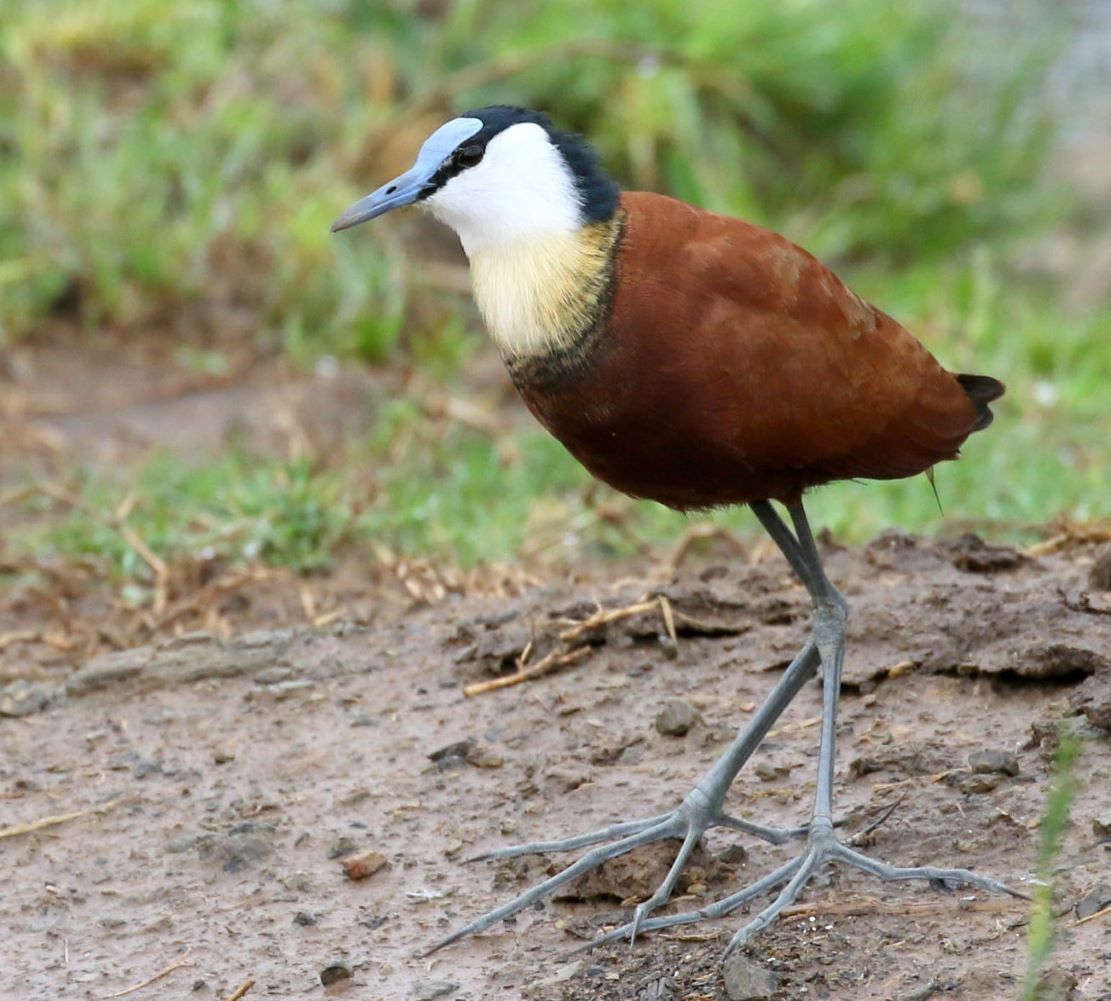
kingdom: Animalia
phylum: Chordata
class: Aves
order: Charadriiformes
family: Jacanidae
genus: Actophilornis
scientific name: Actophilornis africanus
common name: African jacana
